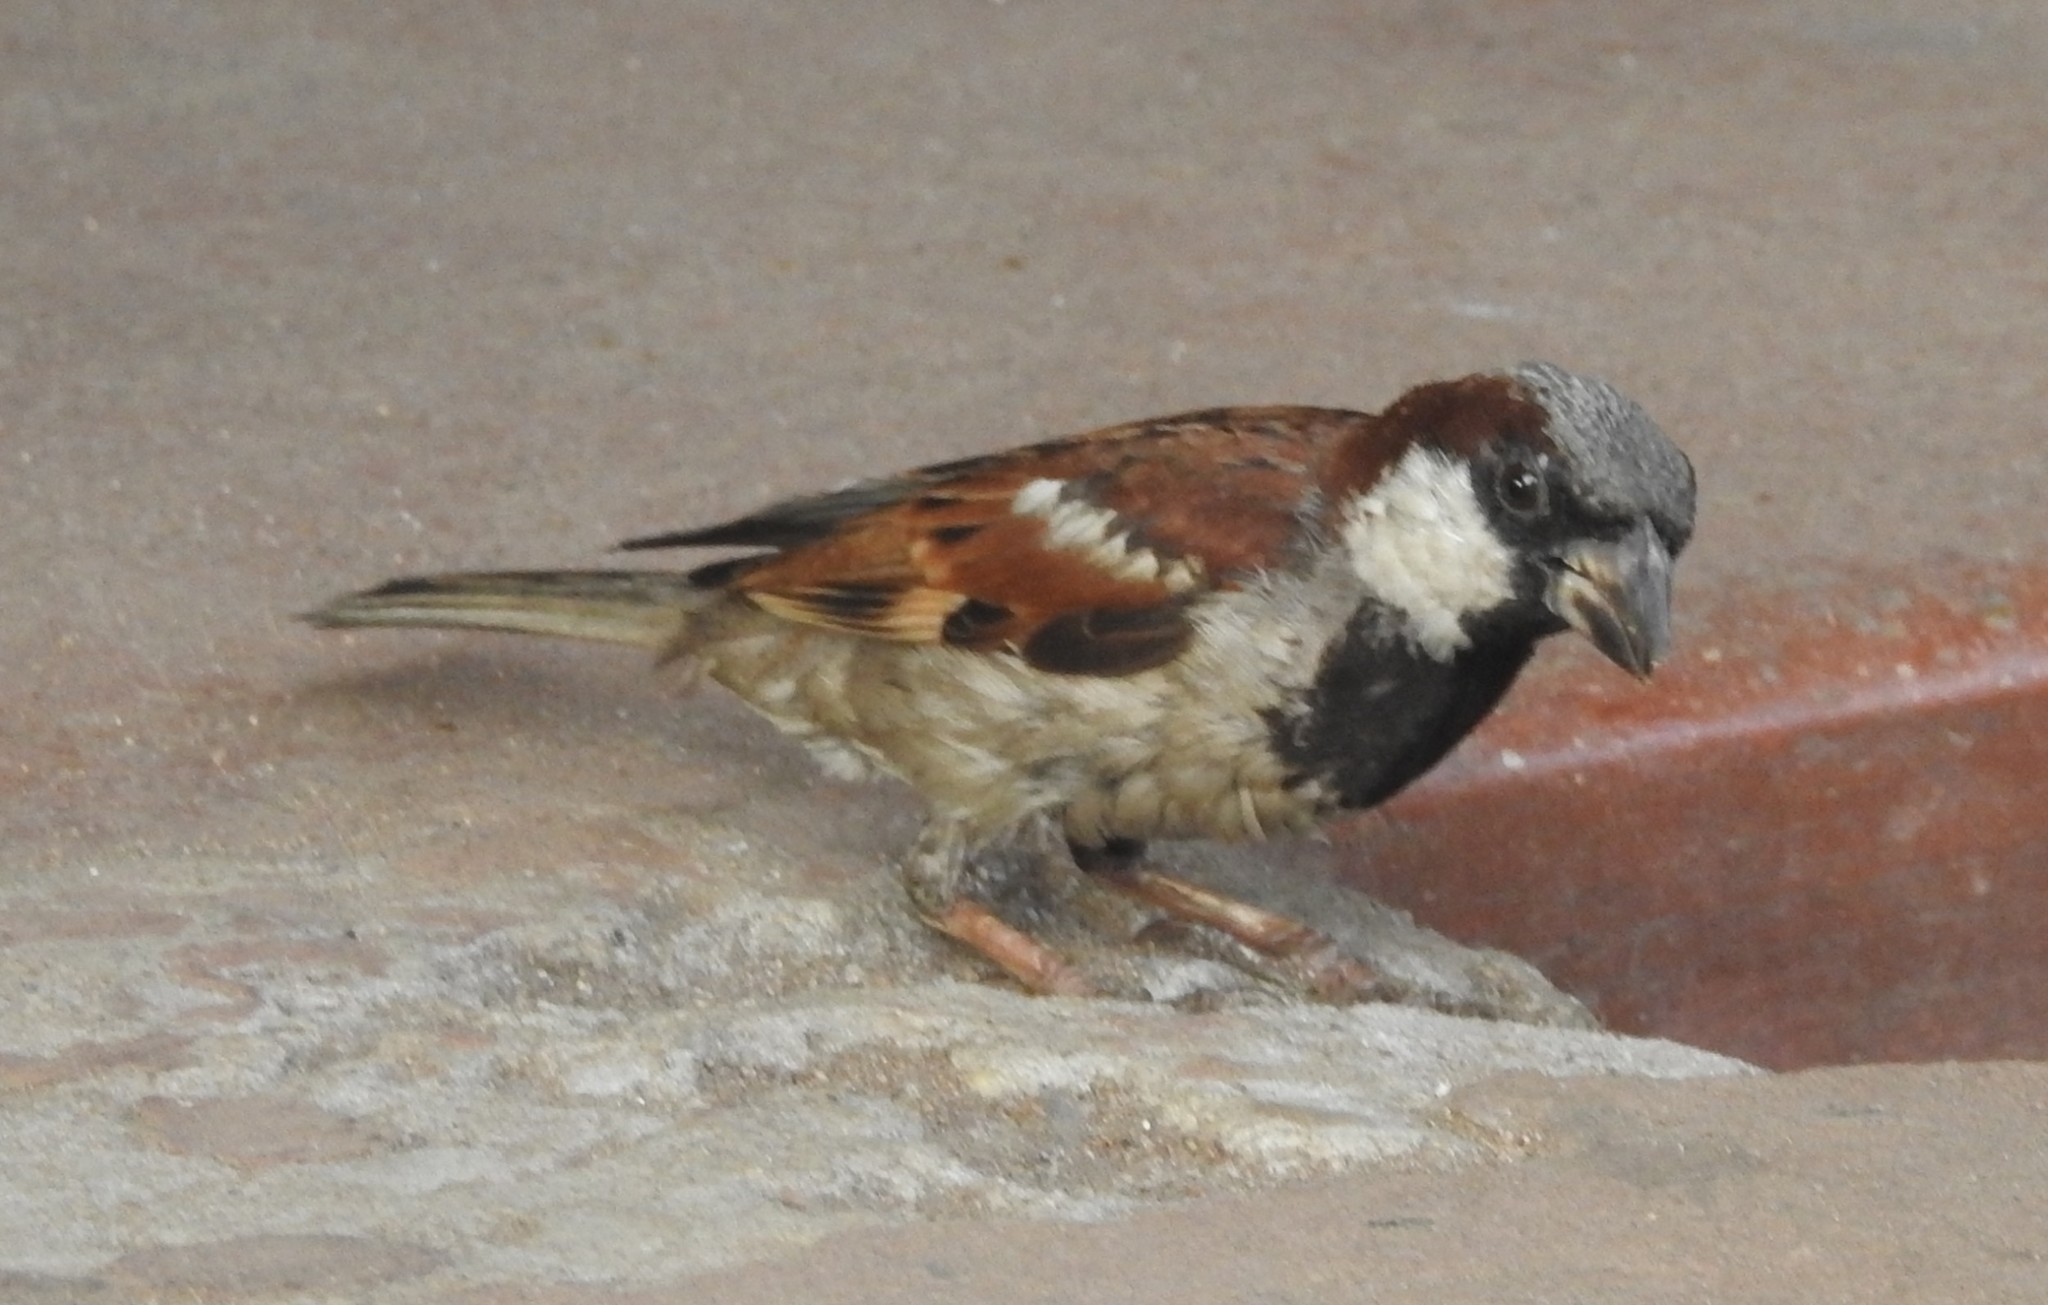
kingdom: Animalia
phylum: Chordata
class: Aves
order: Passeriformes
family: Passeridae
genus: Passer
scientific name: Passer domesticus
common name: House sparrow
